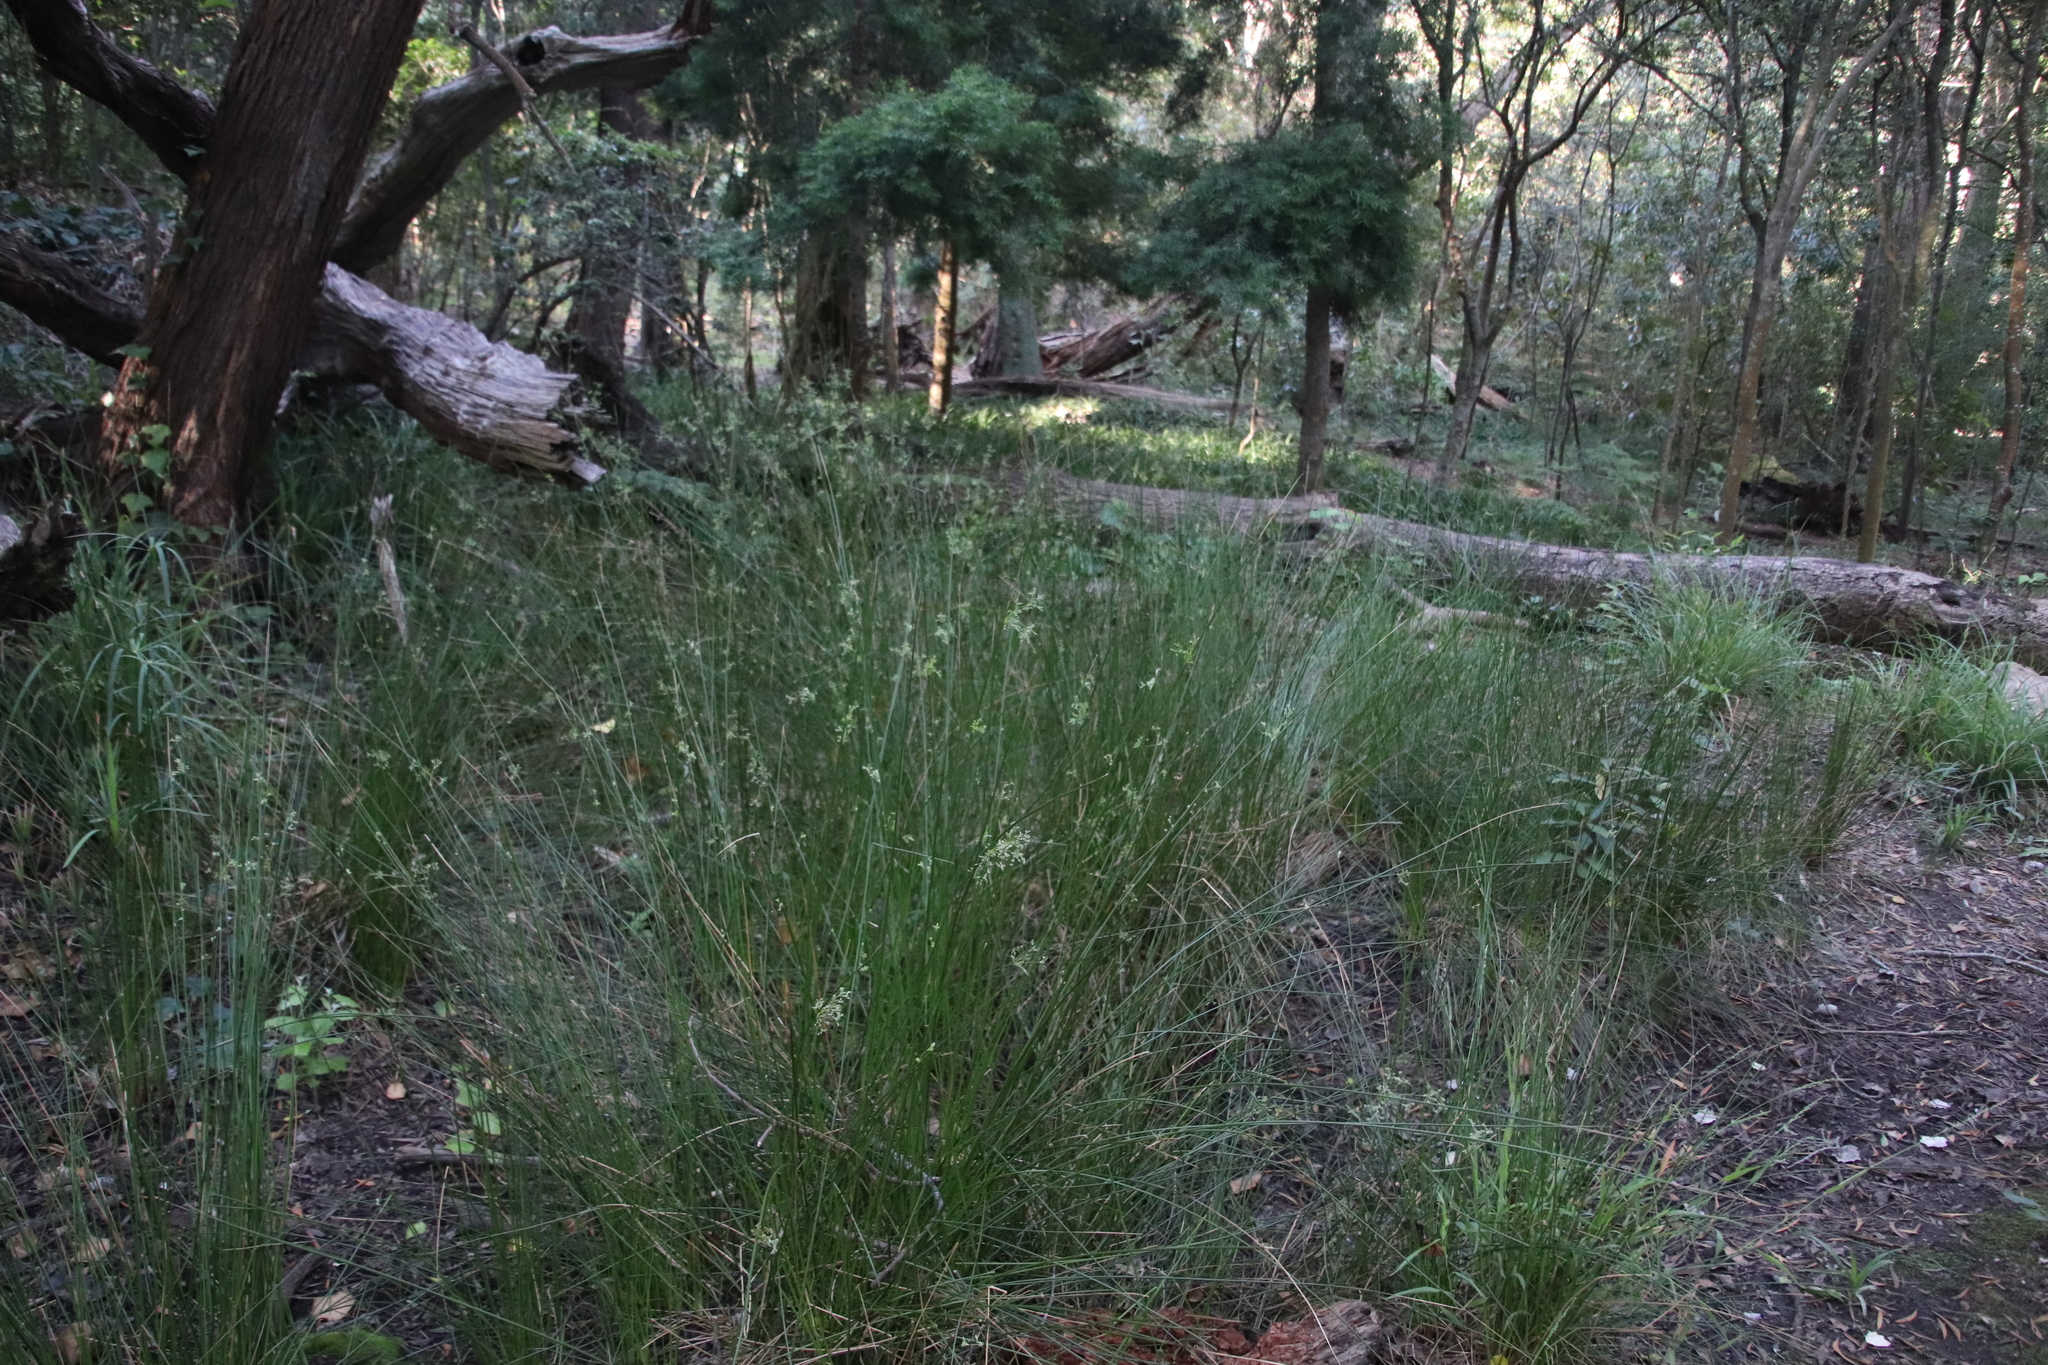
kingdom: Plantae
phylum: Tracheophyta
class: Liliopsida
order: Poales
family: Juncaceae
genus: Juncus
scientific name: Juncus effusus
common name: Soft rush
